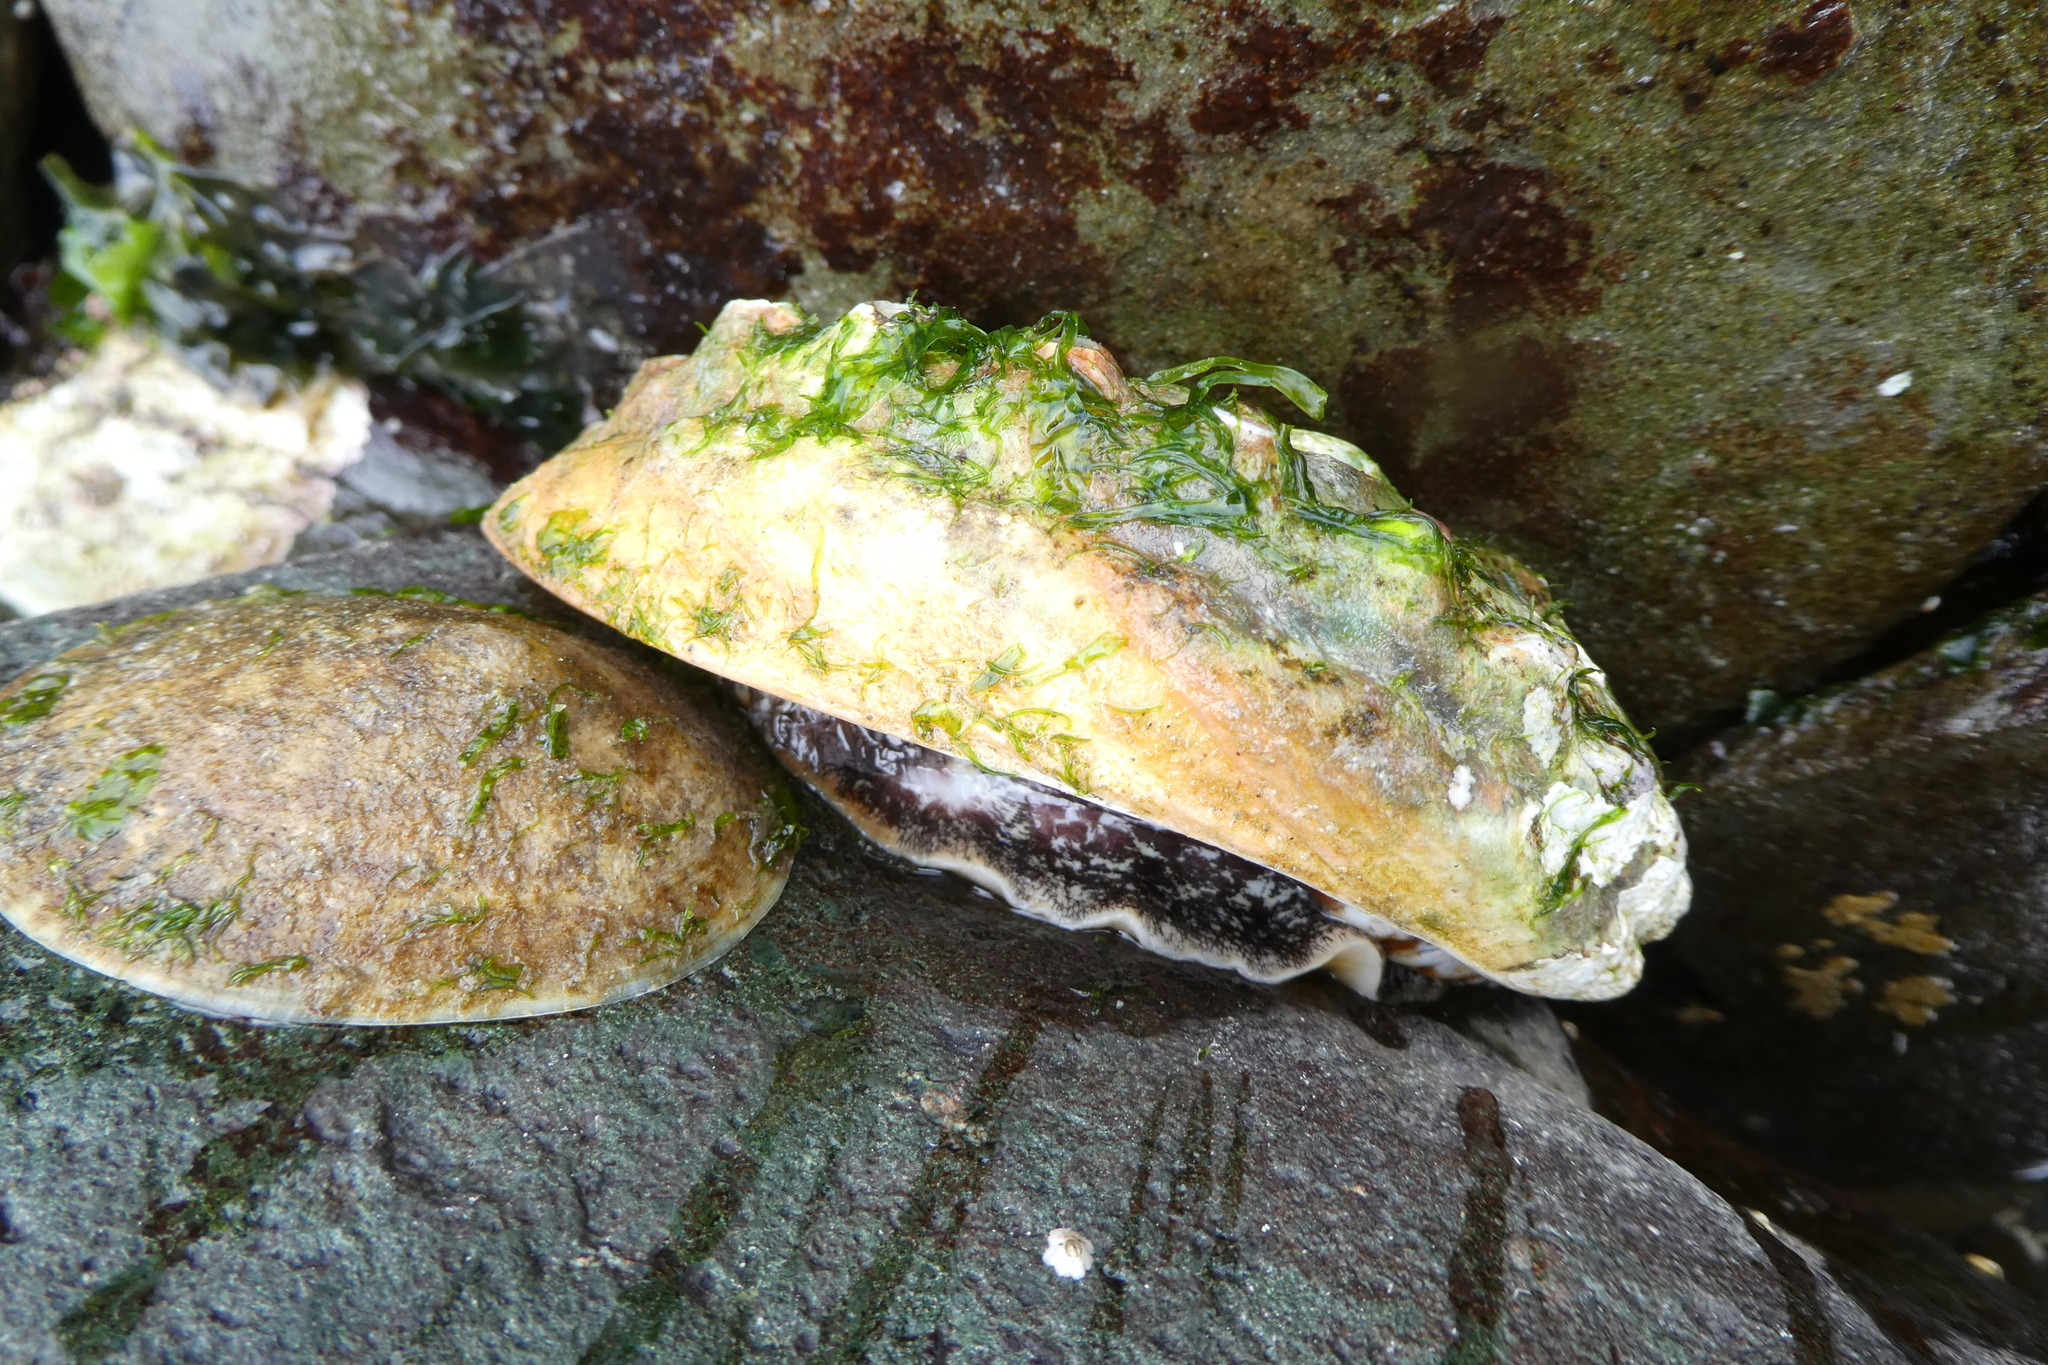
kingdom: Animalia
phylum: Mollusca
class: Gastropoda
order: Lepetellida
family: Haliotidae
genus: Haliotis
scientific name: Haliotis kamtschatkana
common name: Pinto abalone
